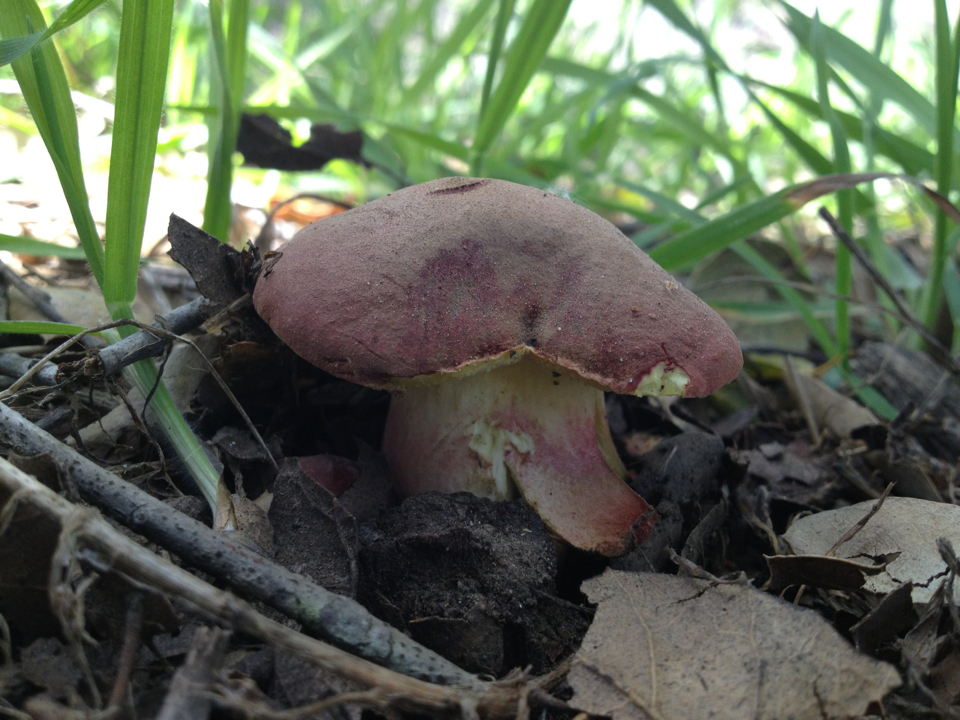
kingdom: Fungi
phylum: Basidiomycota
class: Agaricomycetes
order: Boletales
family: Boletaceae
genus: Xerocomellus
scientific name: Xerocomellus dryophilus
